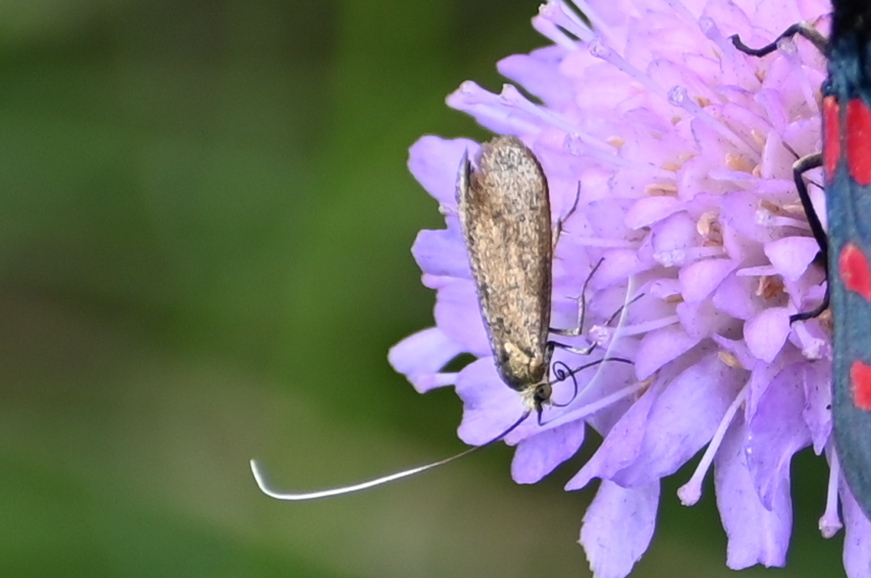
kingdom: Animalia
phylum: Arthropoda
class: Insecta
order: Lepidoptera
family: Adelidae
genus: Nemophora
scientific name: Nemophora metallica
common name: Brassy long-horn
